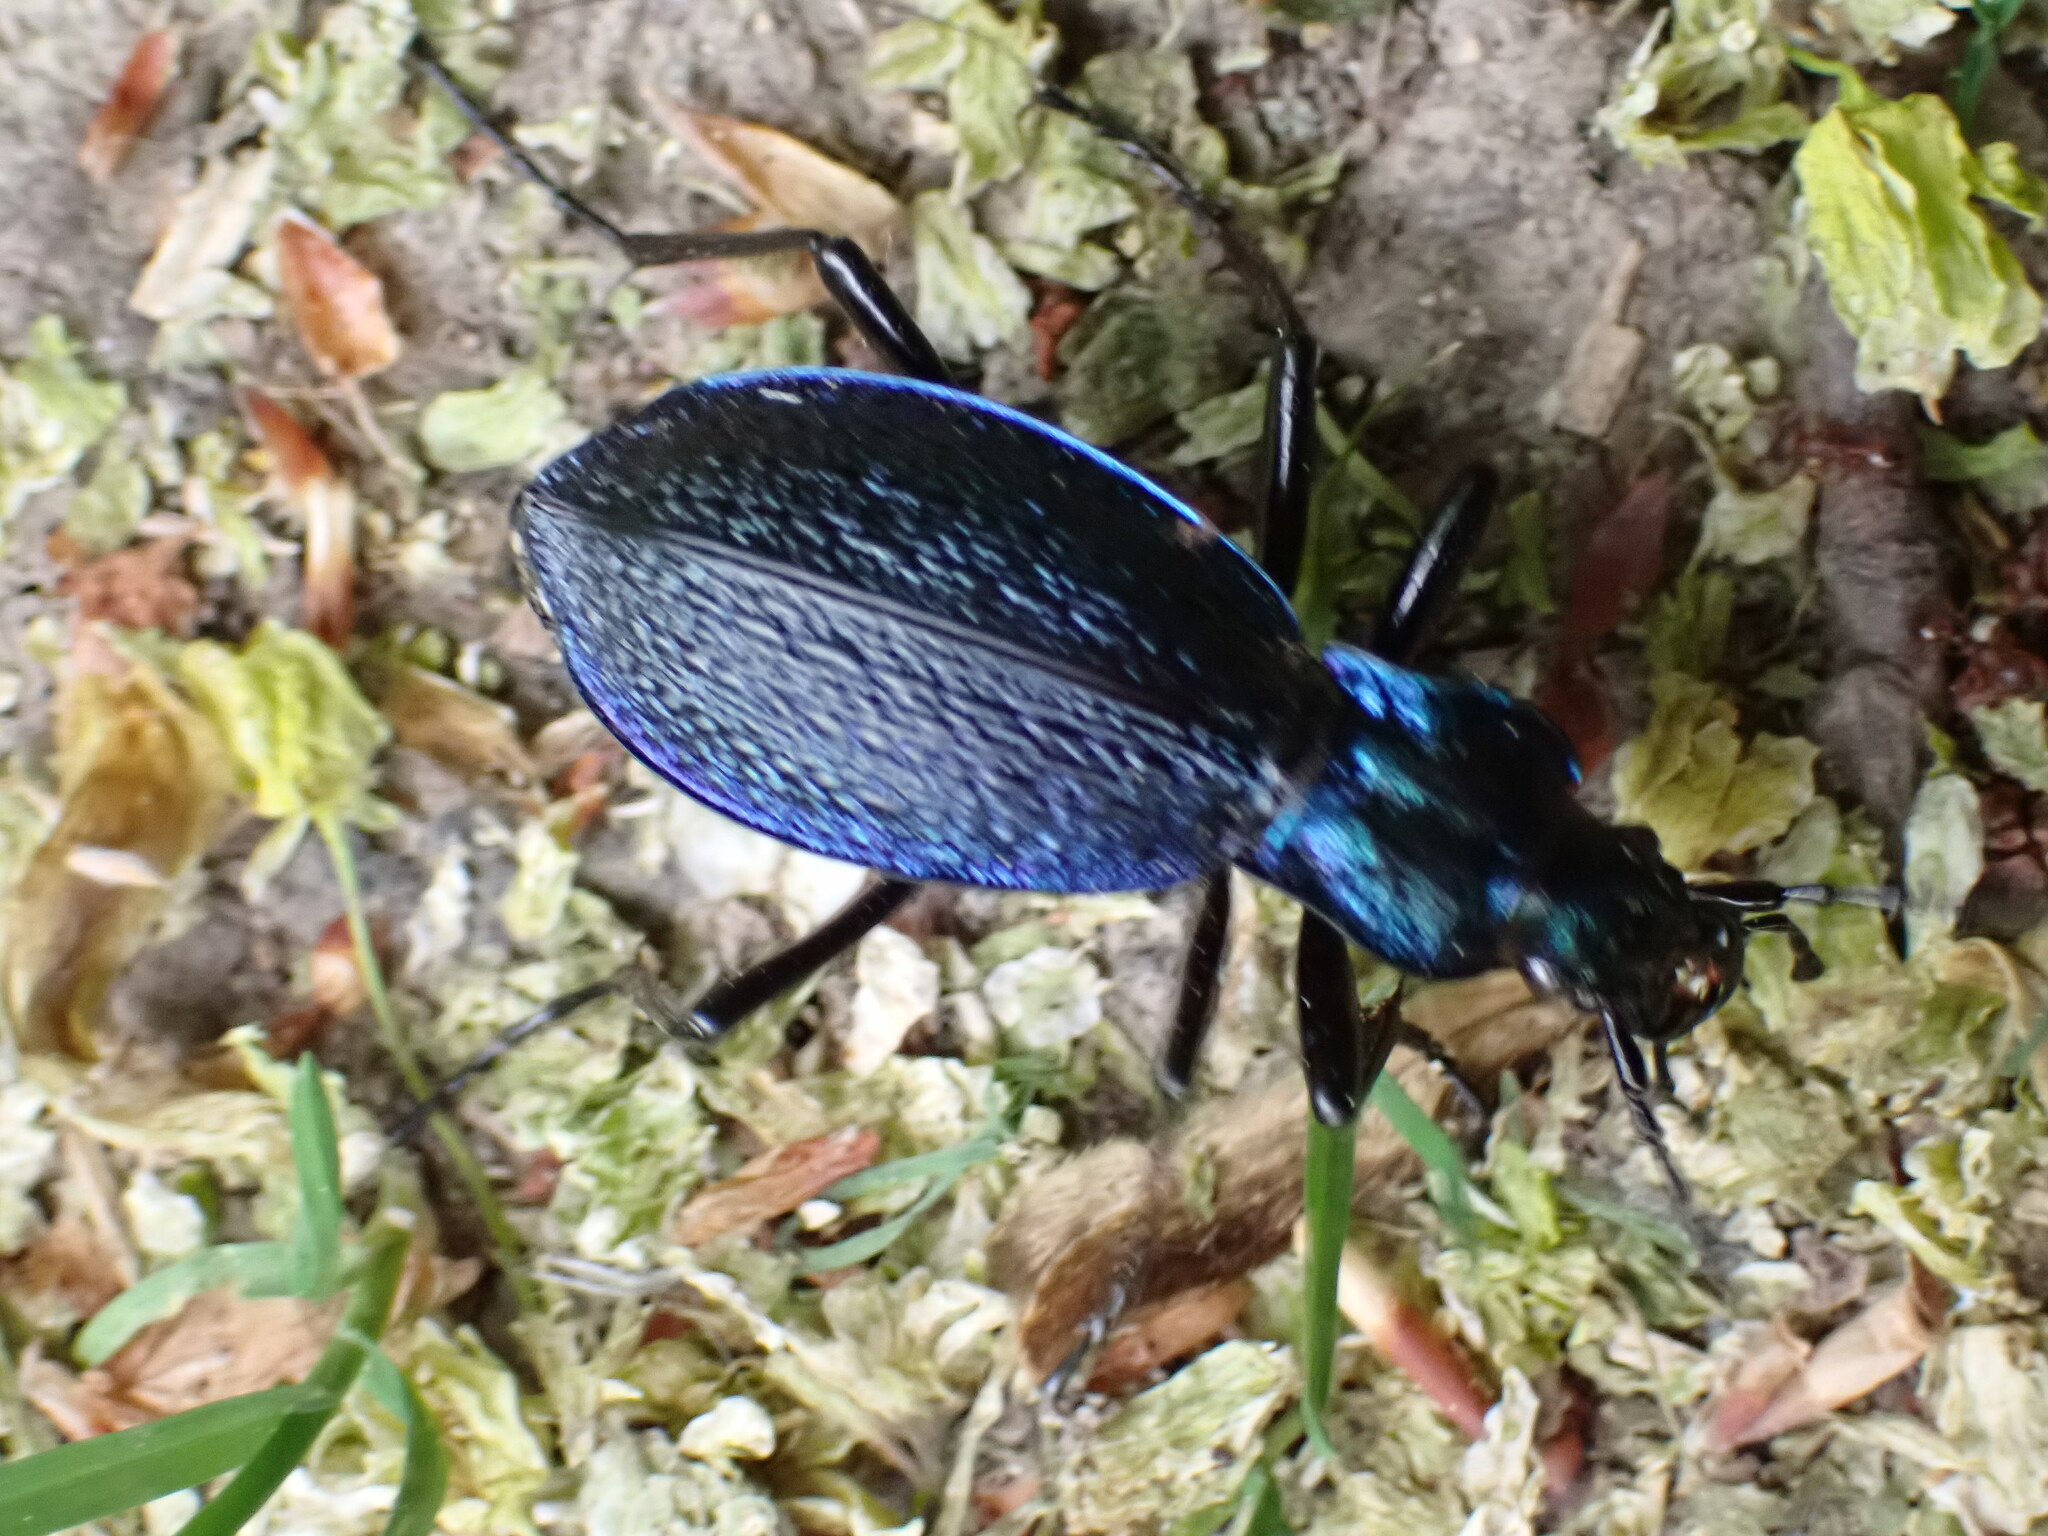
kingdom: Animalia
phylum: Arthropoda
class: Insecta
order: Coleoptera
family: Carabidae
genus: Carabus
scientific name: Carabus intricatus
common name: Blue ground beetle
